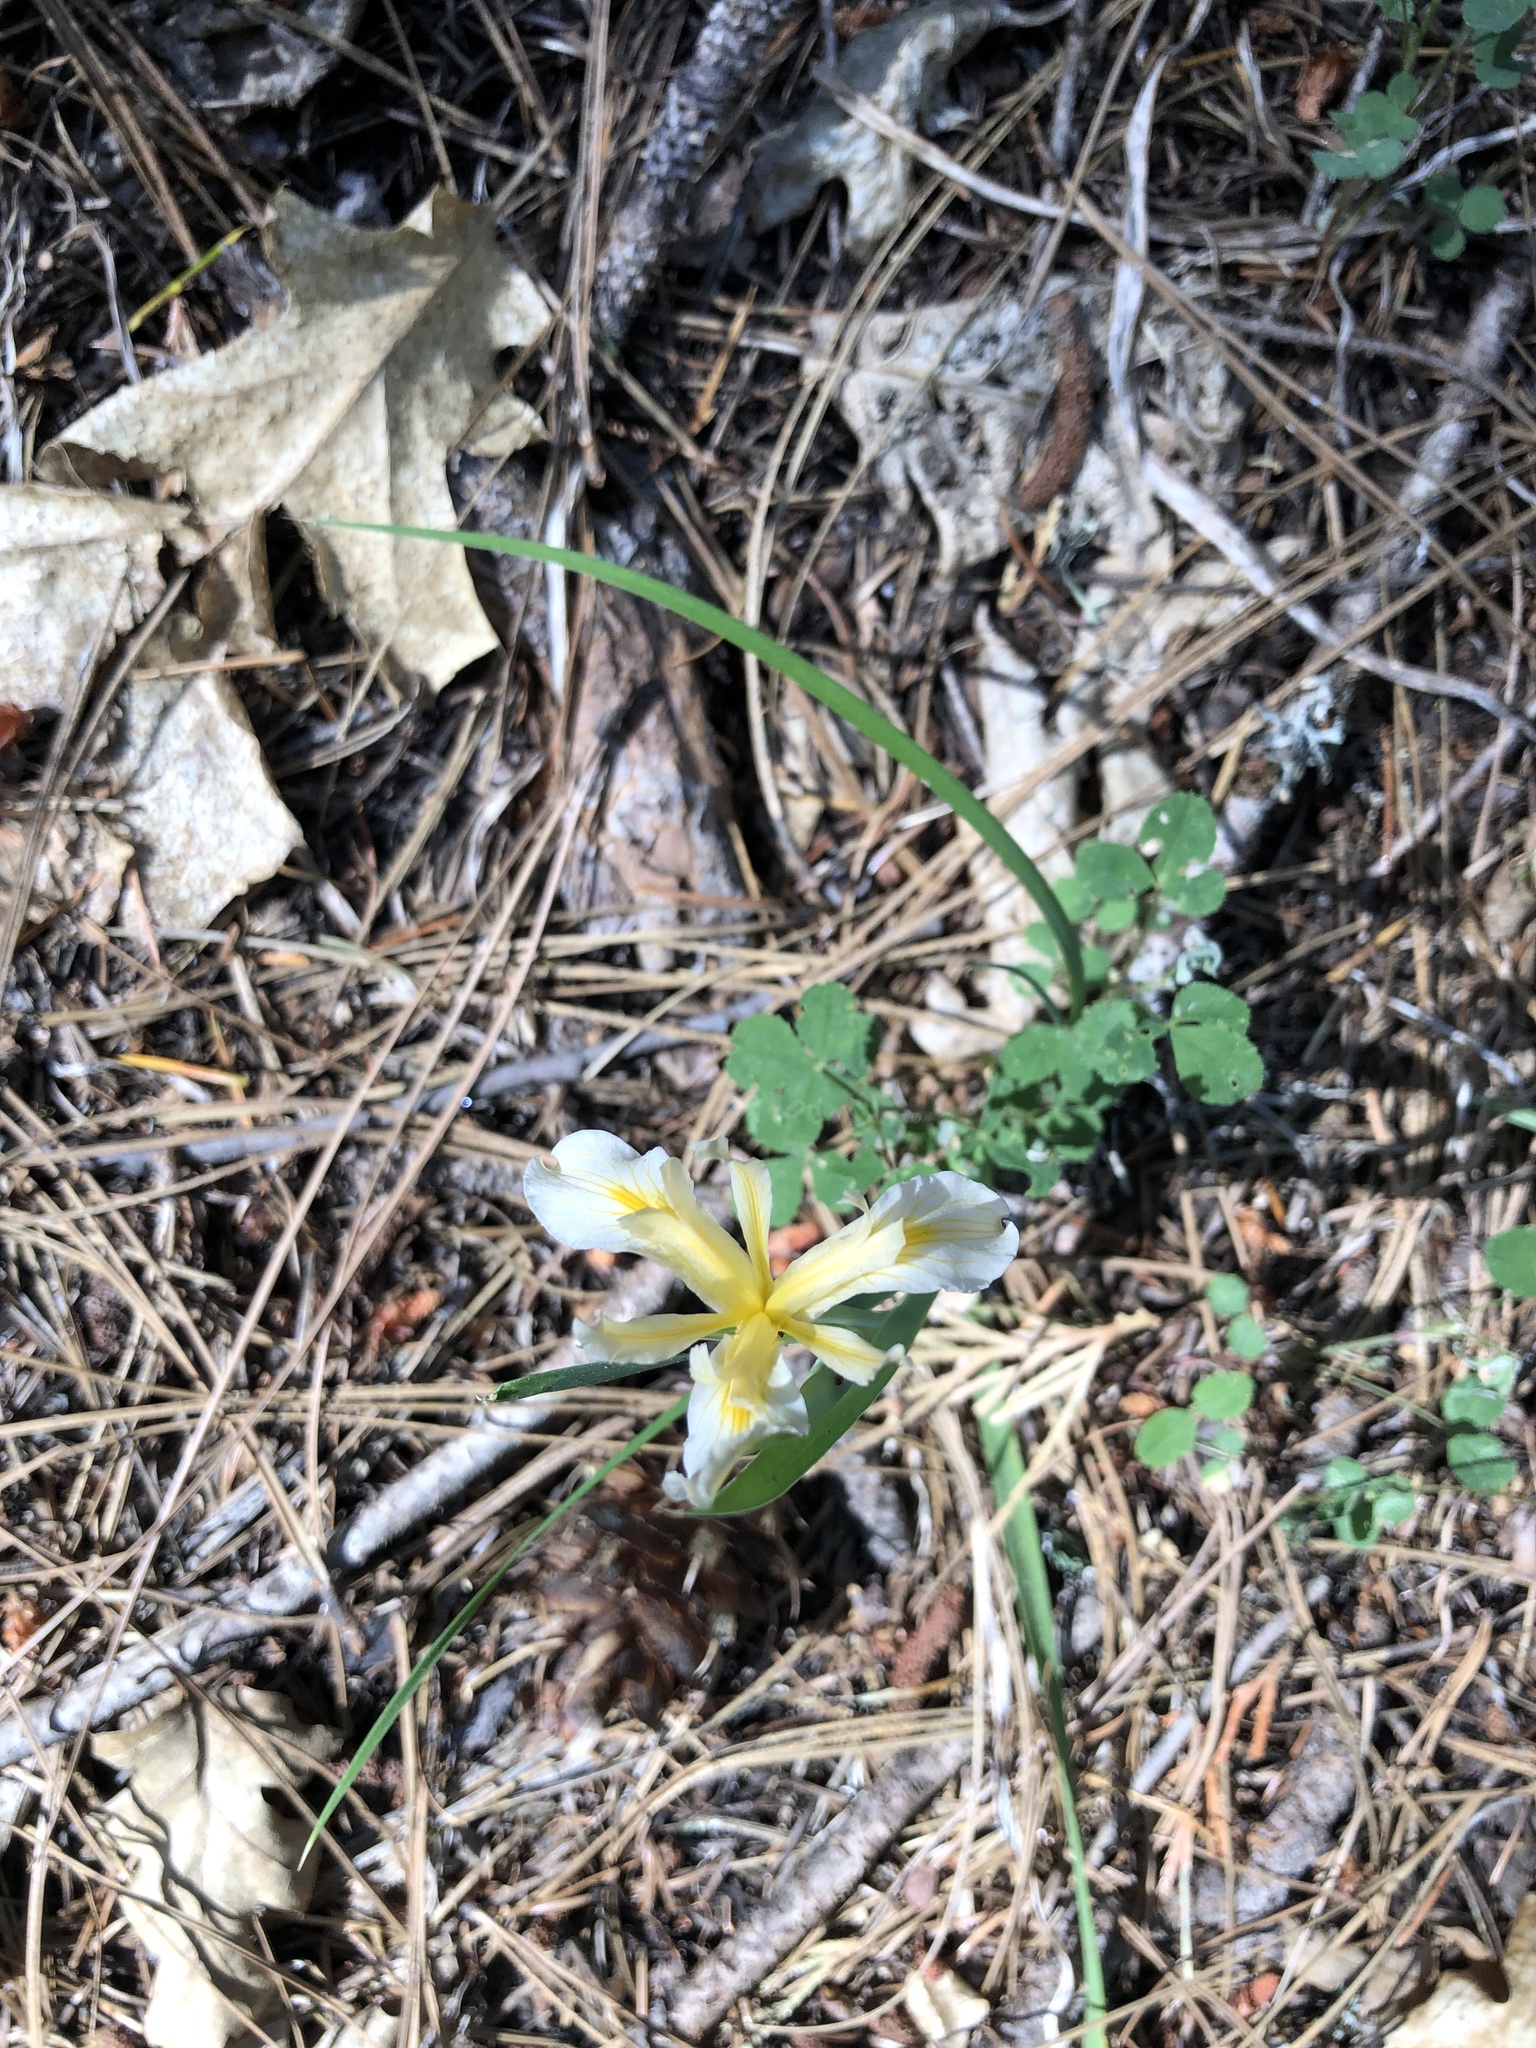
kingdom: Plantae
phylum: Tracheophyta
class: Liliopsida
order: Asparagales
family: Iridaceae
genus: Iris
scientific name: Iris hartwegii
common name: Sierra iris
